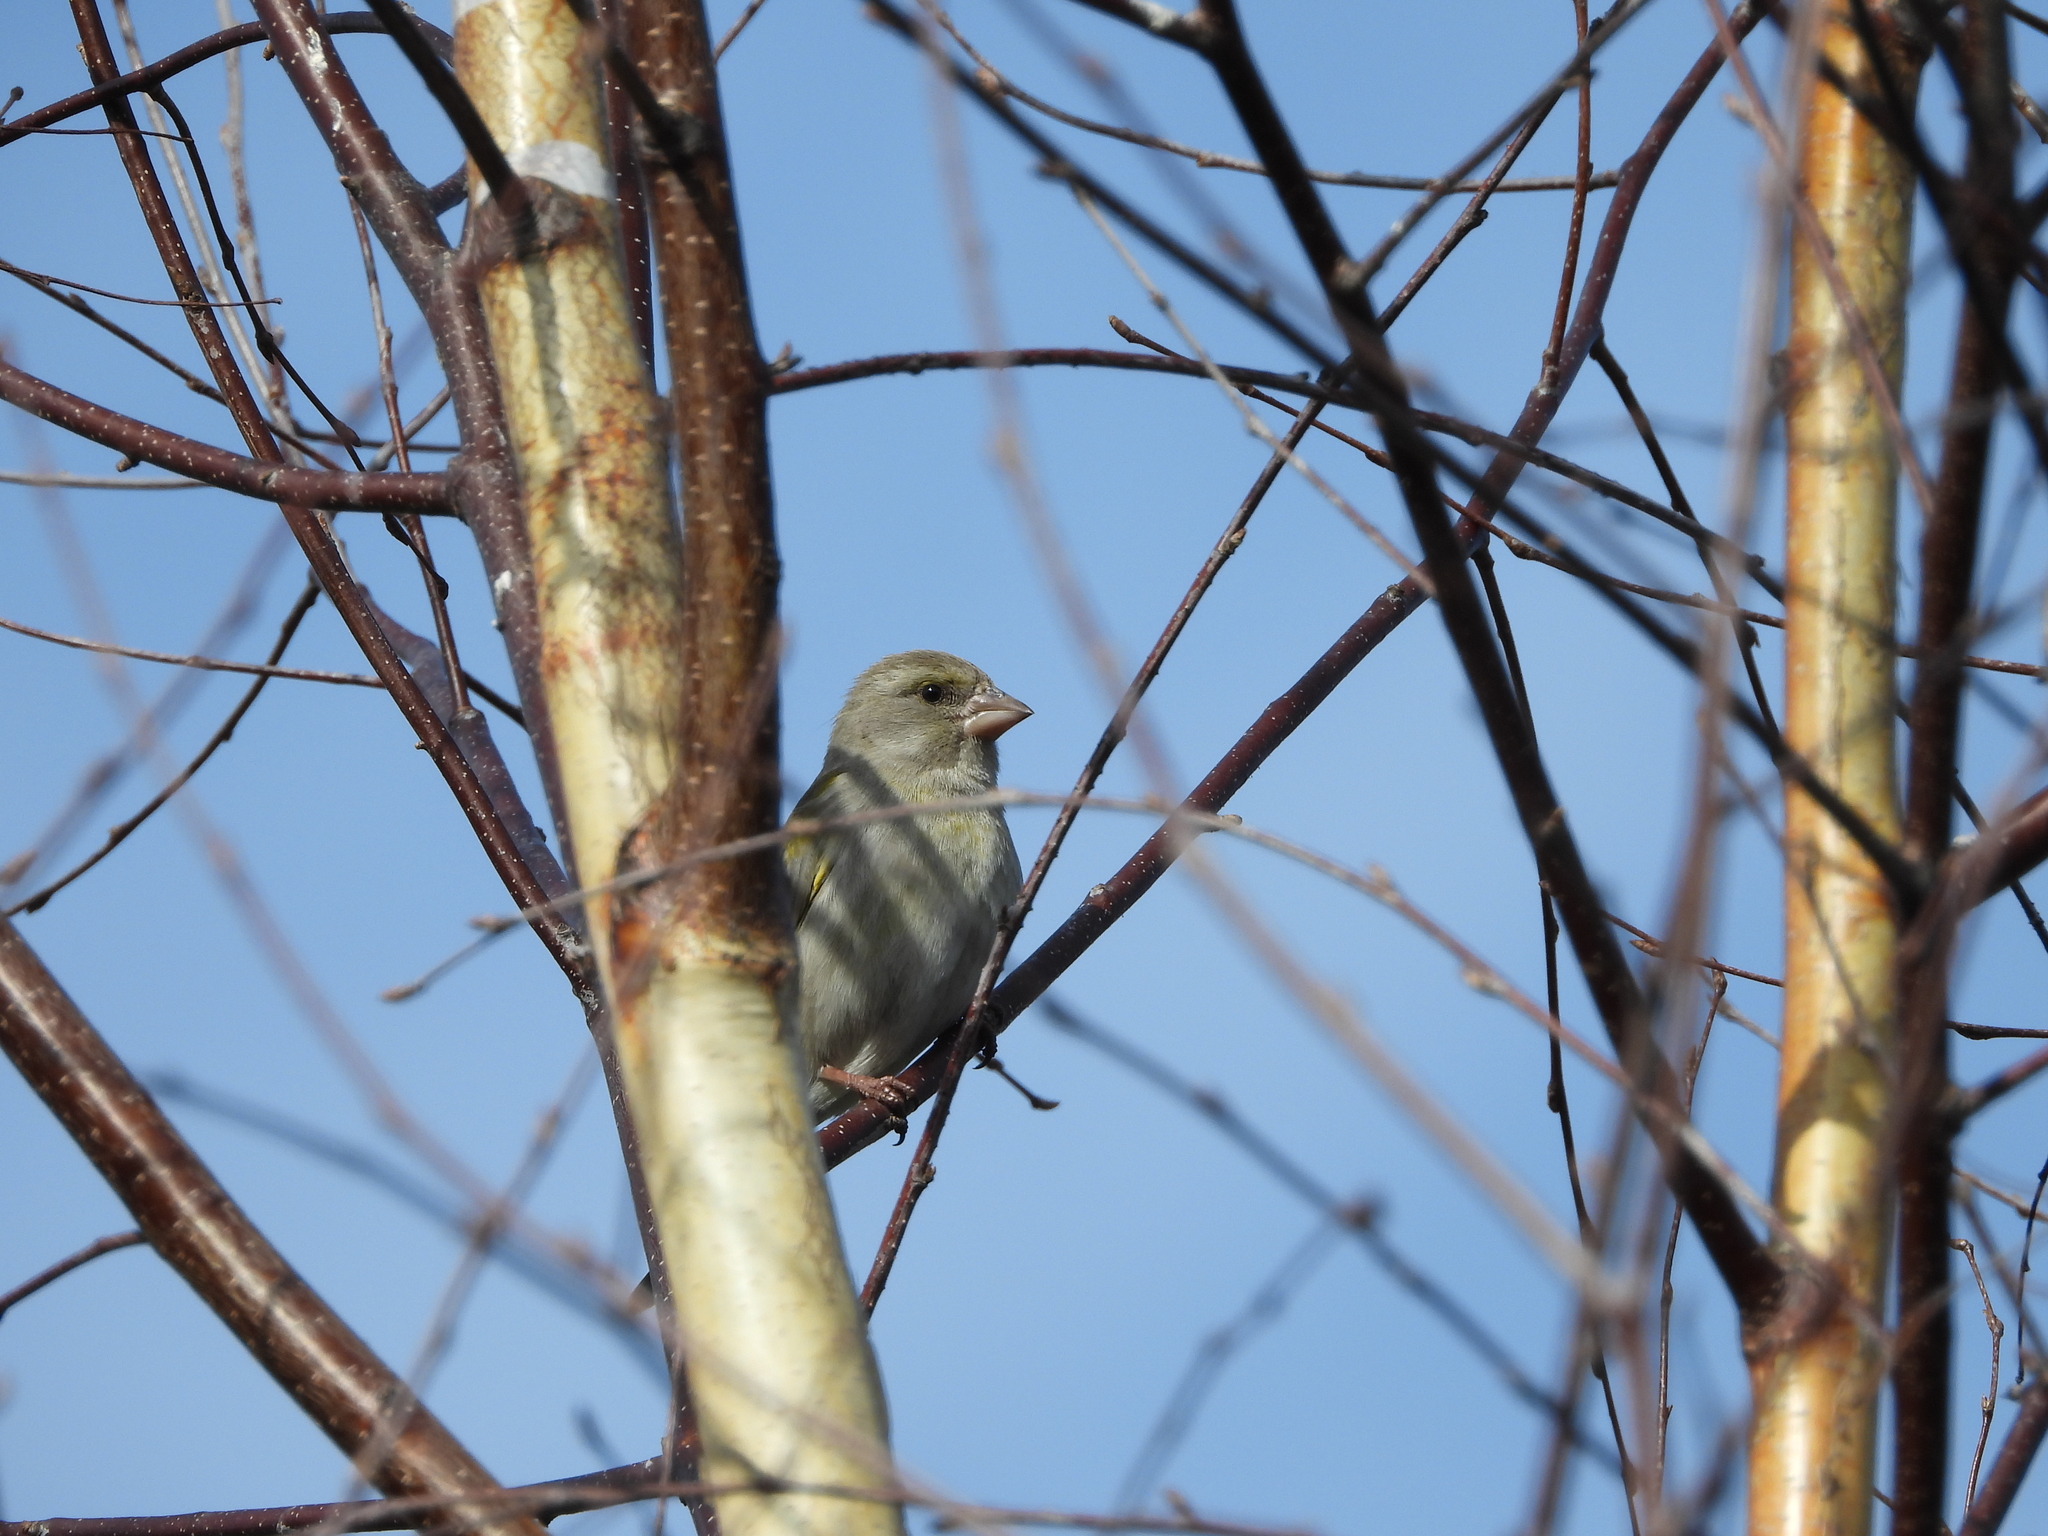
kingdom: Plantae
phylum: Tracheophyta
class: Liliopsida
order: Poales
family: Poaceae
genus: Chloris
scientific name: Chloris chloris
